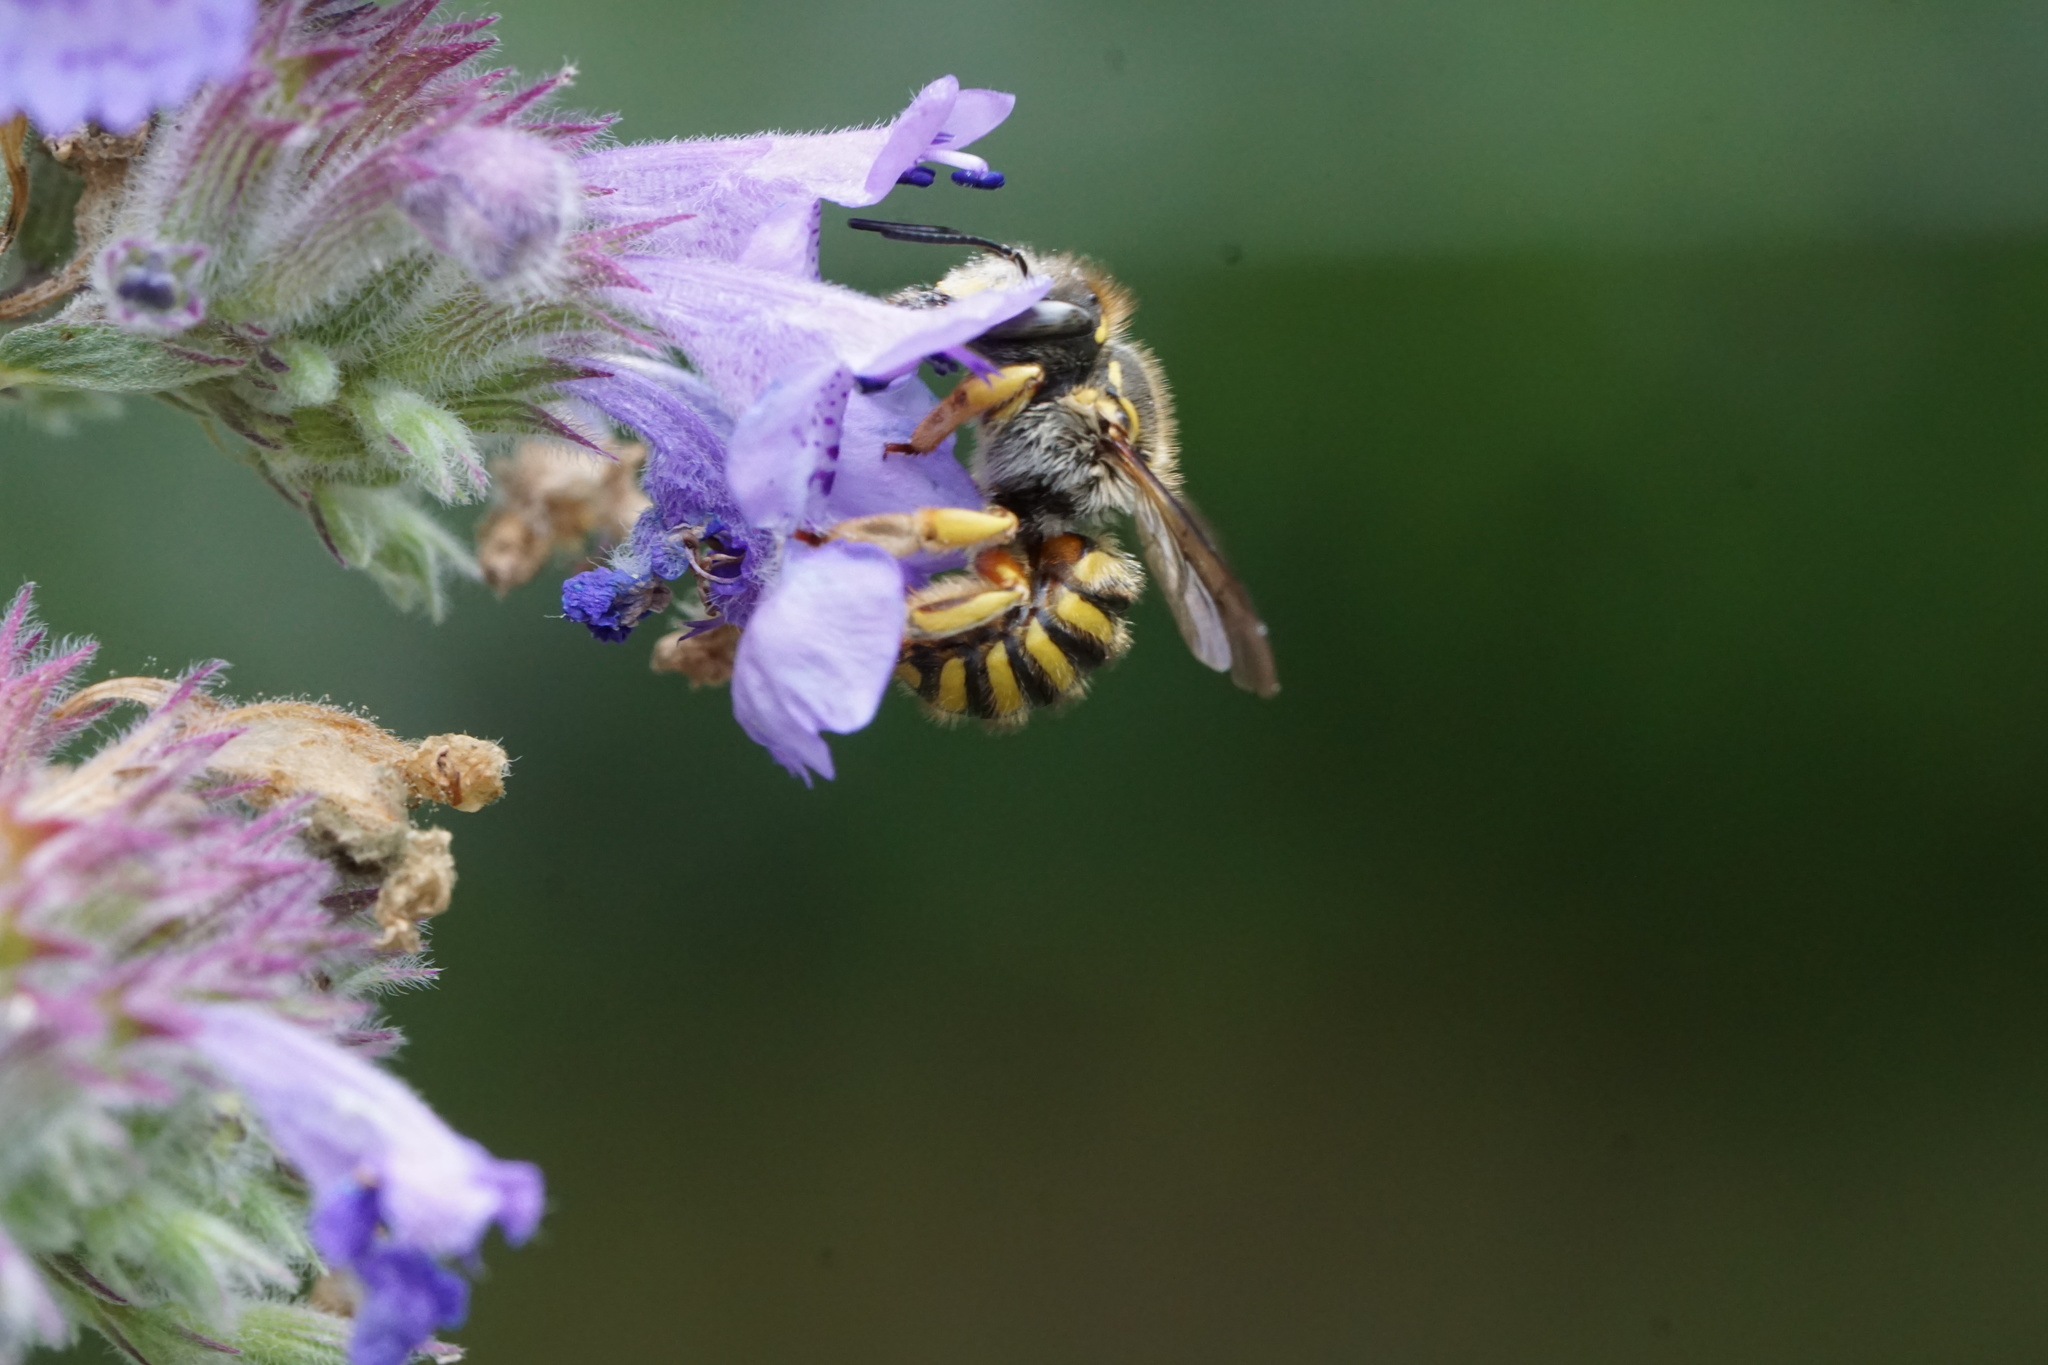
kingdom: Animalia
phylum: Arthropoda
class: Insecta
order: Hymenoptera
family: Megachilidae
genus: Anthidium
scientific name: Anthidium manicatum
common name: Wool carder bee
